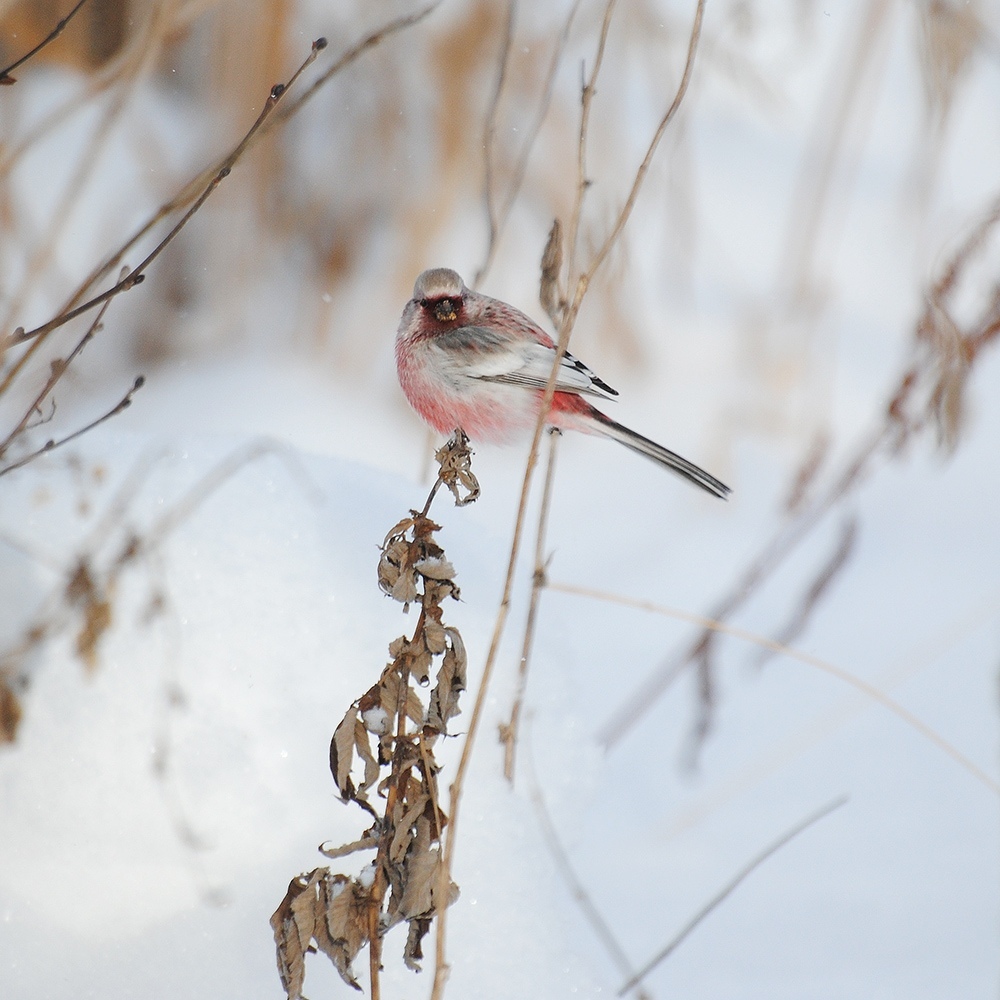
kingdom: Animalia
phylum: Chordata
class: Aves
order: Passeriformes
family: Fringillidae
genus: Carpodacus
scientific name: Carpodacus sibiricus
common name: Long-tailed rosefinch
